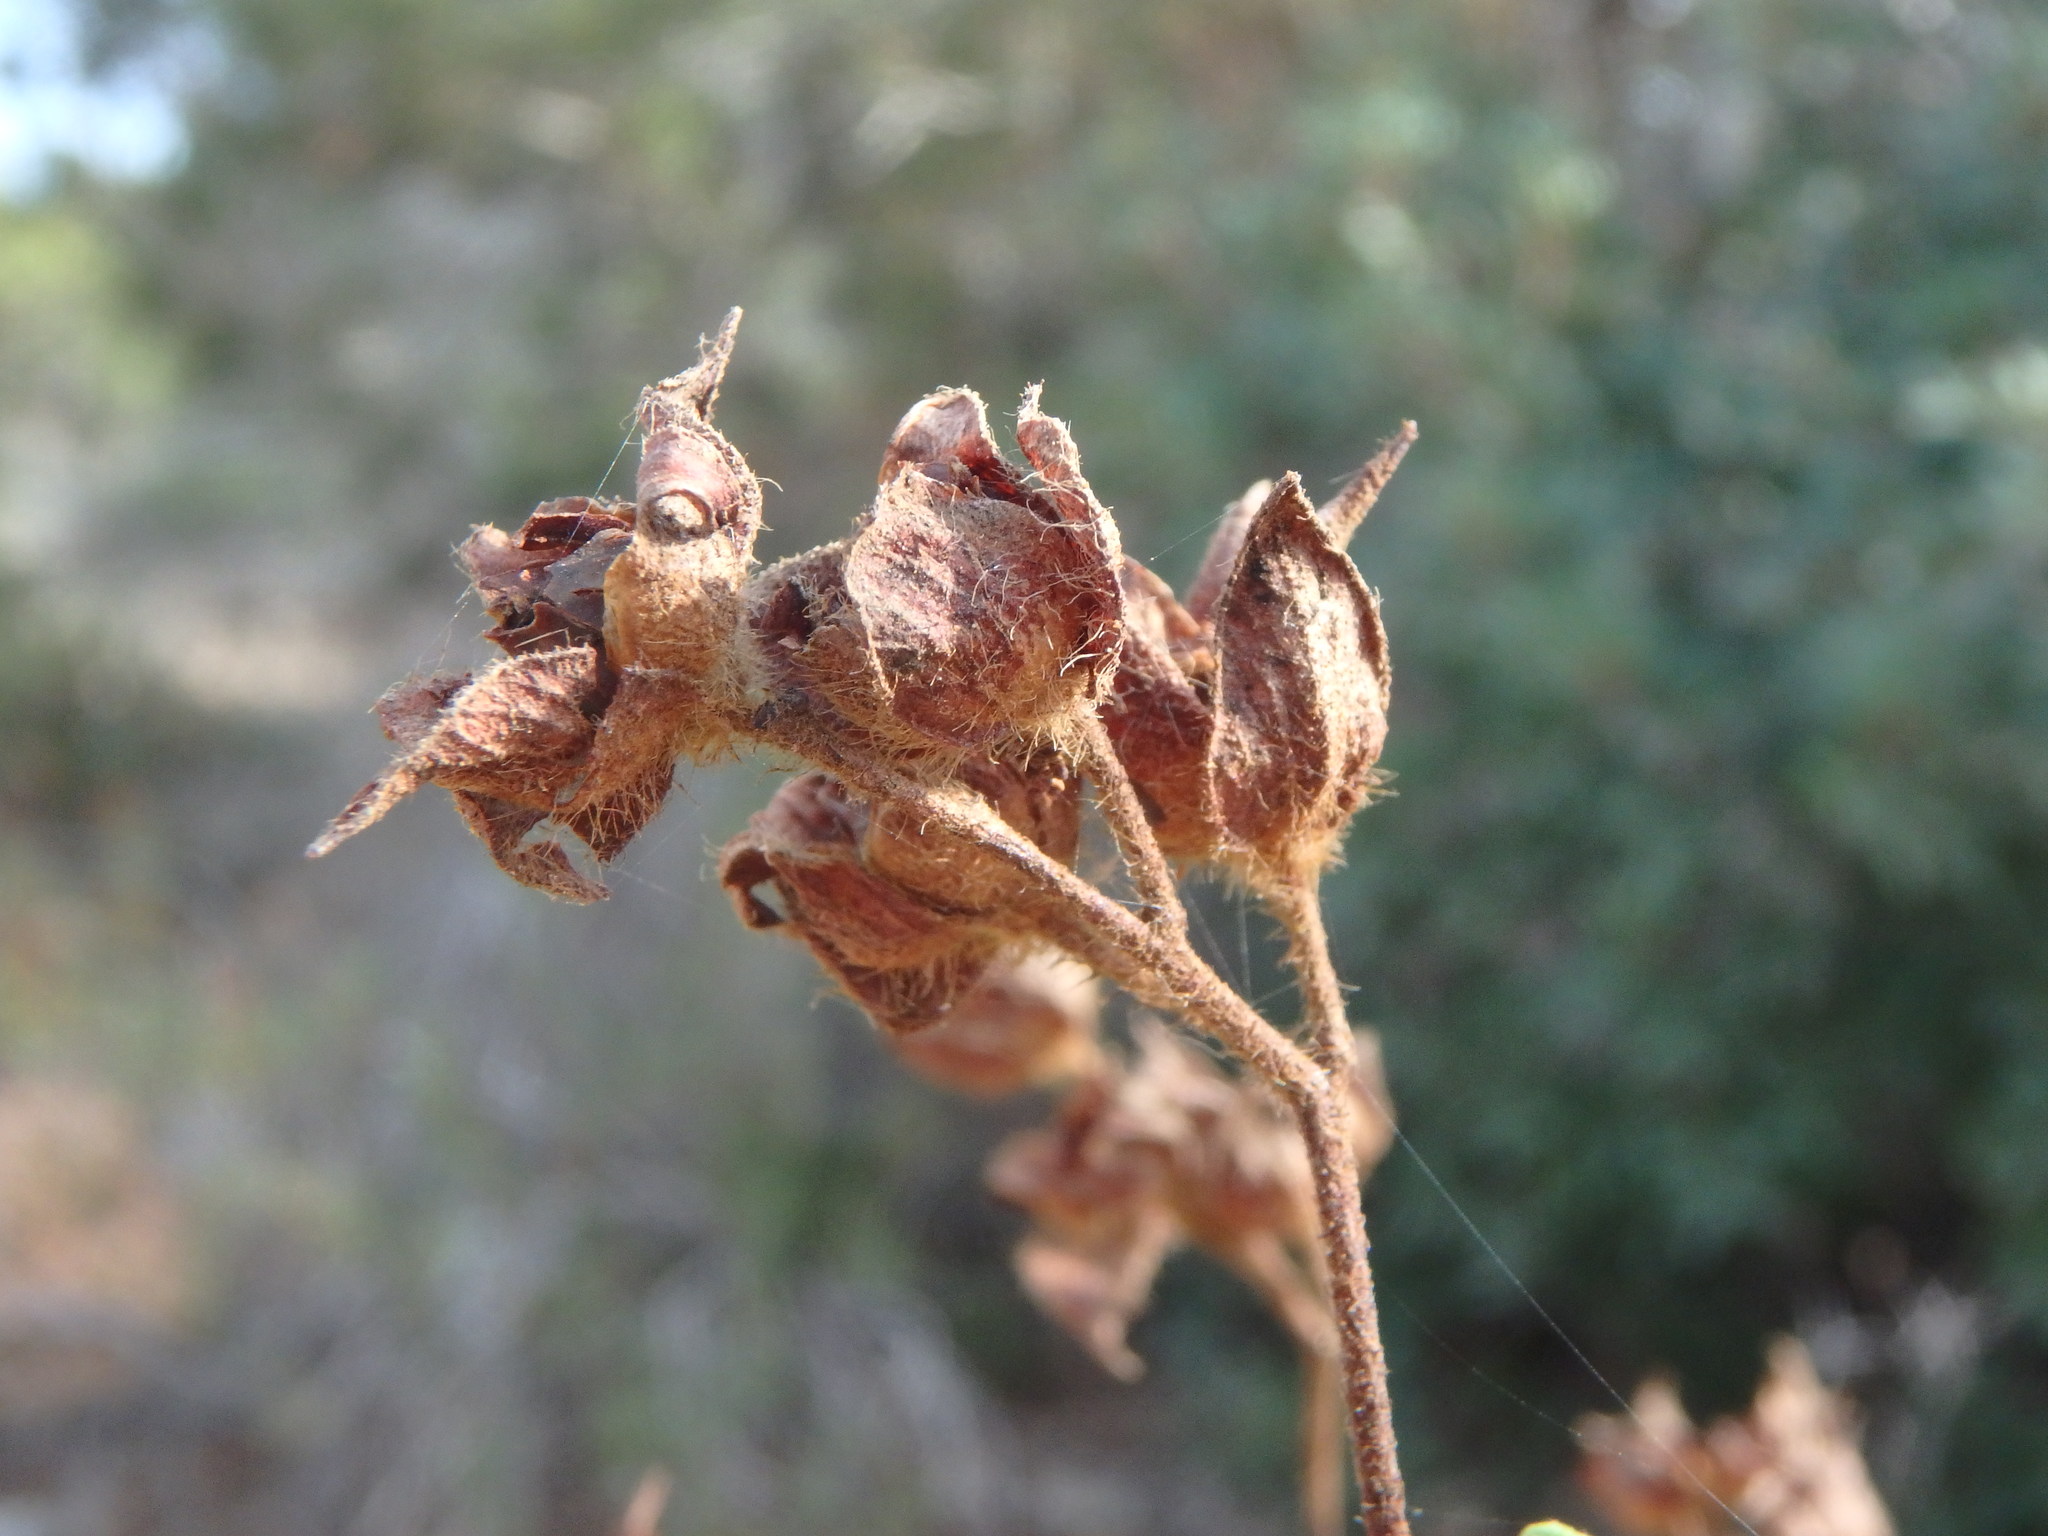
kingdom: Plantae
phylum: Tracheophyta
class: Magnoliopsida
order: Malvales
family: Cistaceae
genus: Cistus
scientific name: Cistus monspeliensis
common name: Montpelier cistus
